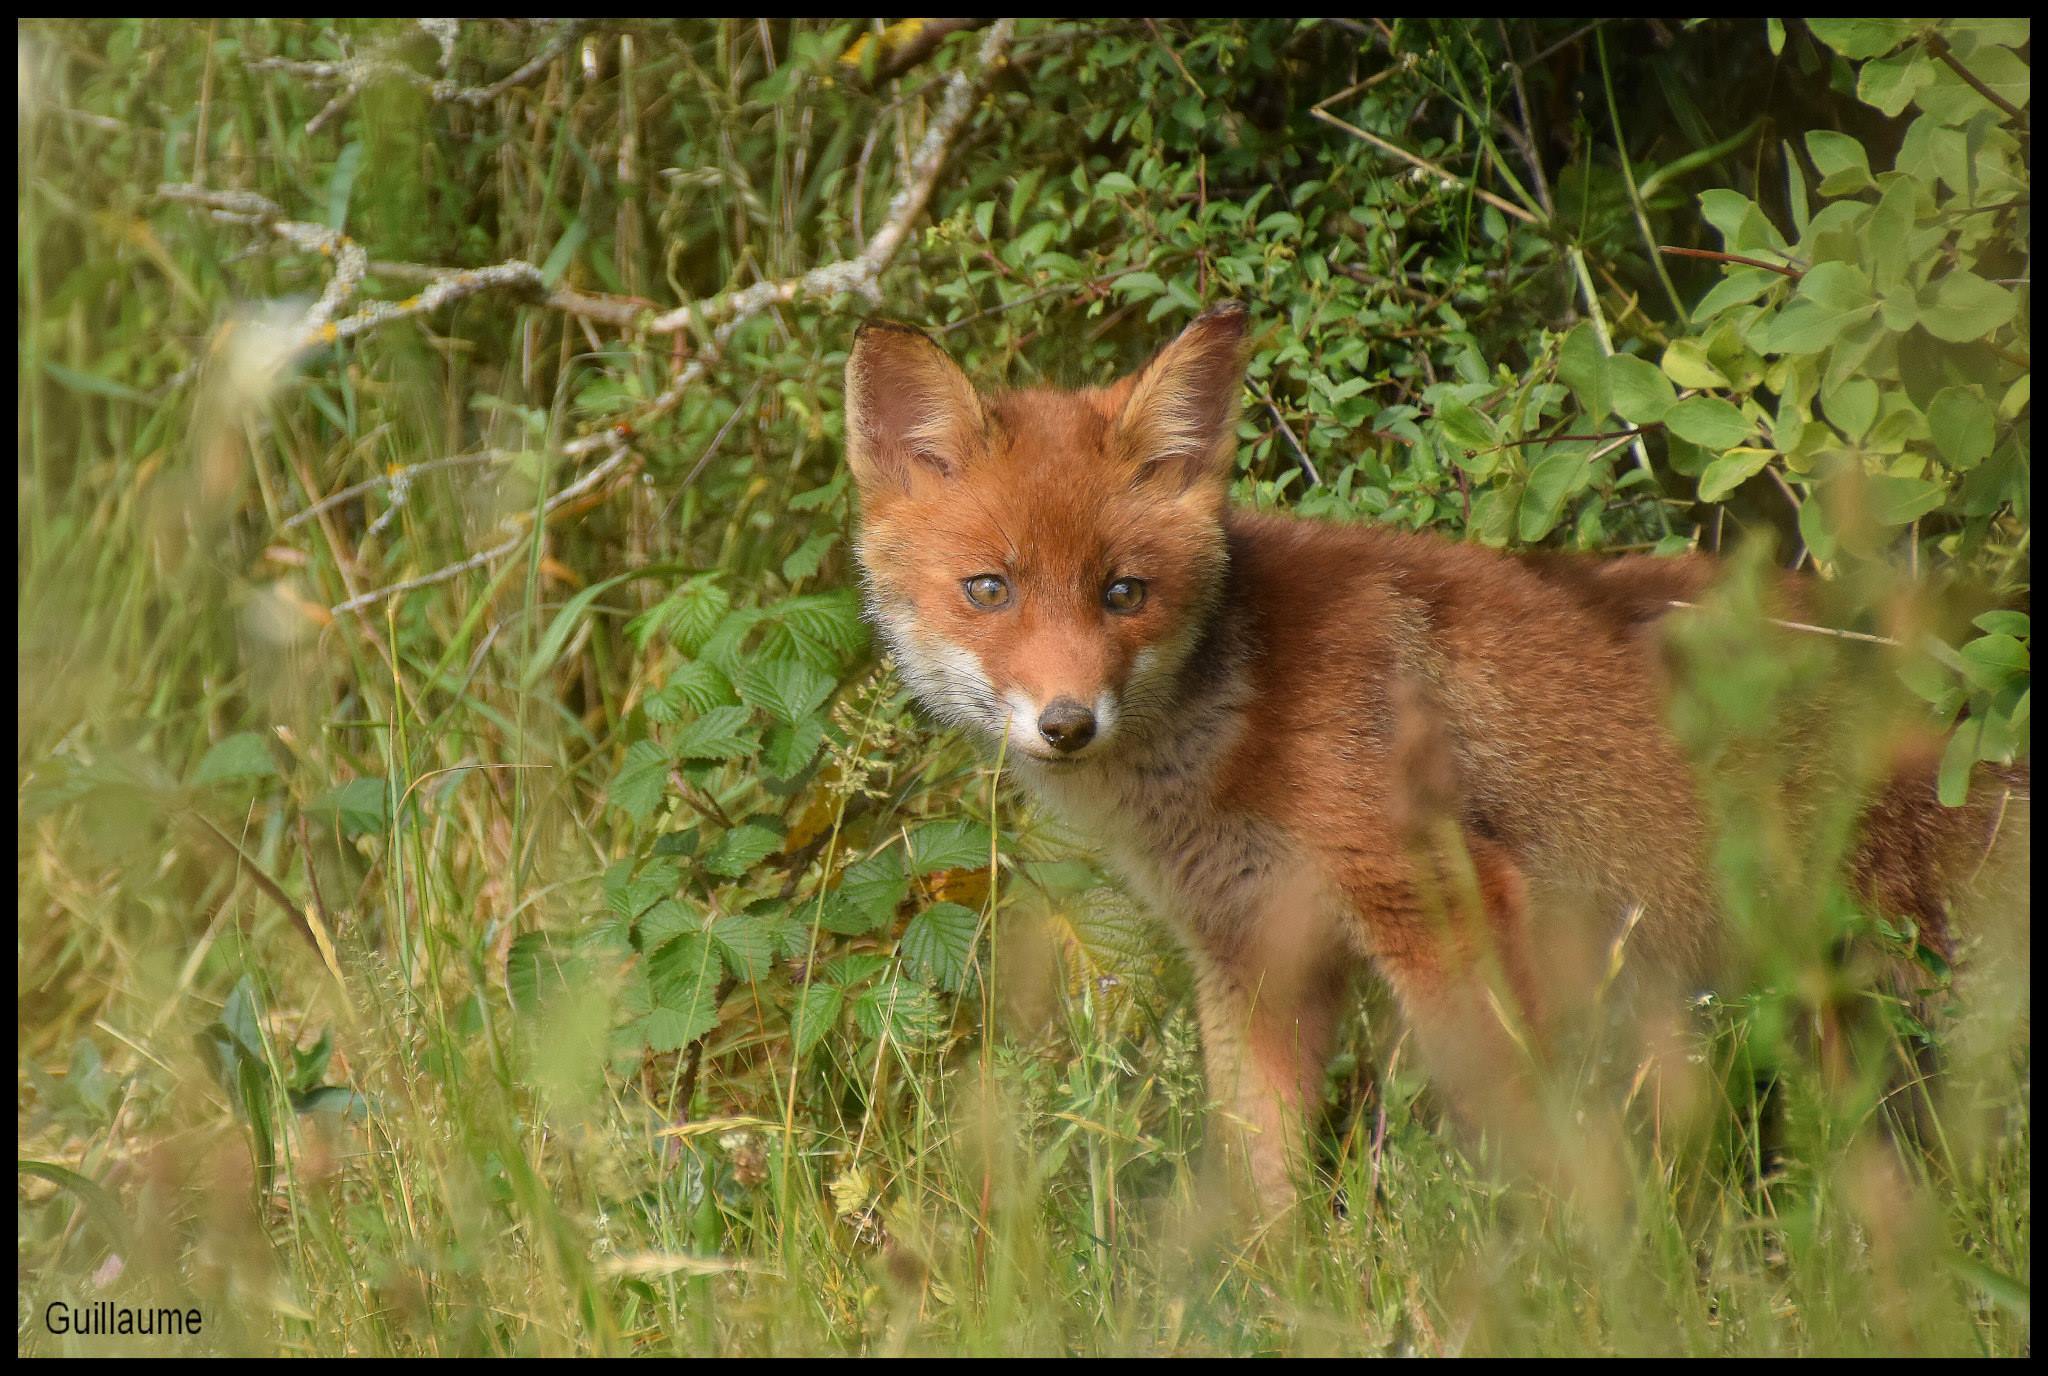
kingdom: Animalia
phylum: Chordata
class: Mammalia
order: Carnivora
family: Canidae
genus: Vulpes
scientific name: Vulpes vulpes
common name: Red fox
